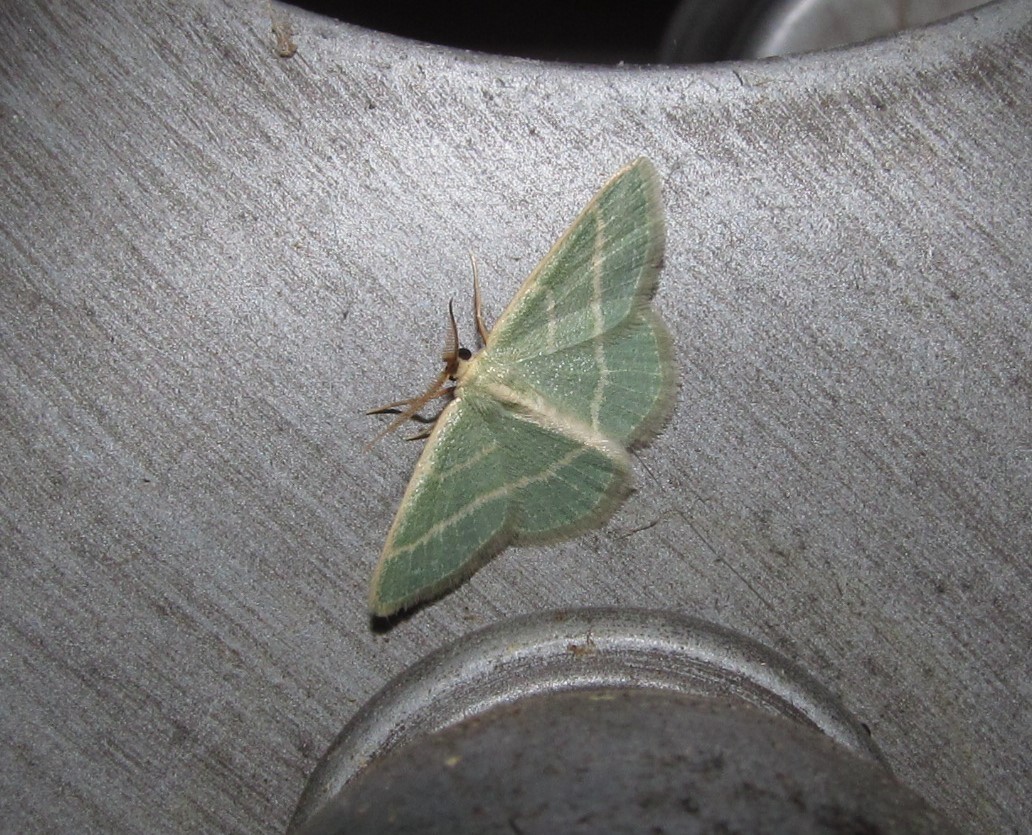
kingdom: Animalia
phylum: Arthropoda
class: Insecta
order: Lepidoptera
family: Geometridae
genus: Chlorochlamys
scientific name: Chlorochlamys chloroleucaria
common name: Blackberry looper
